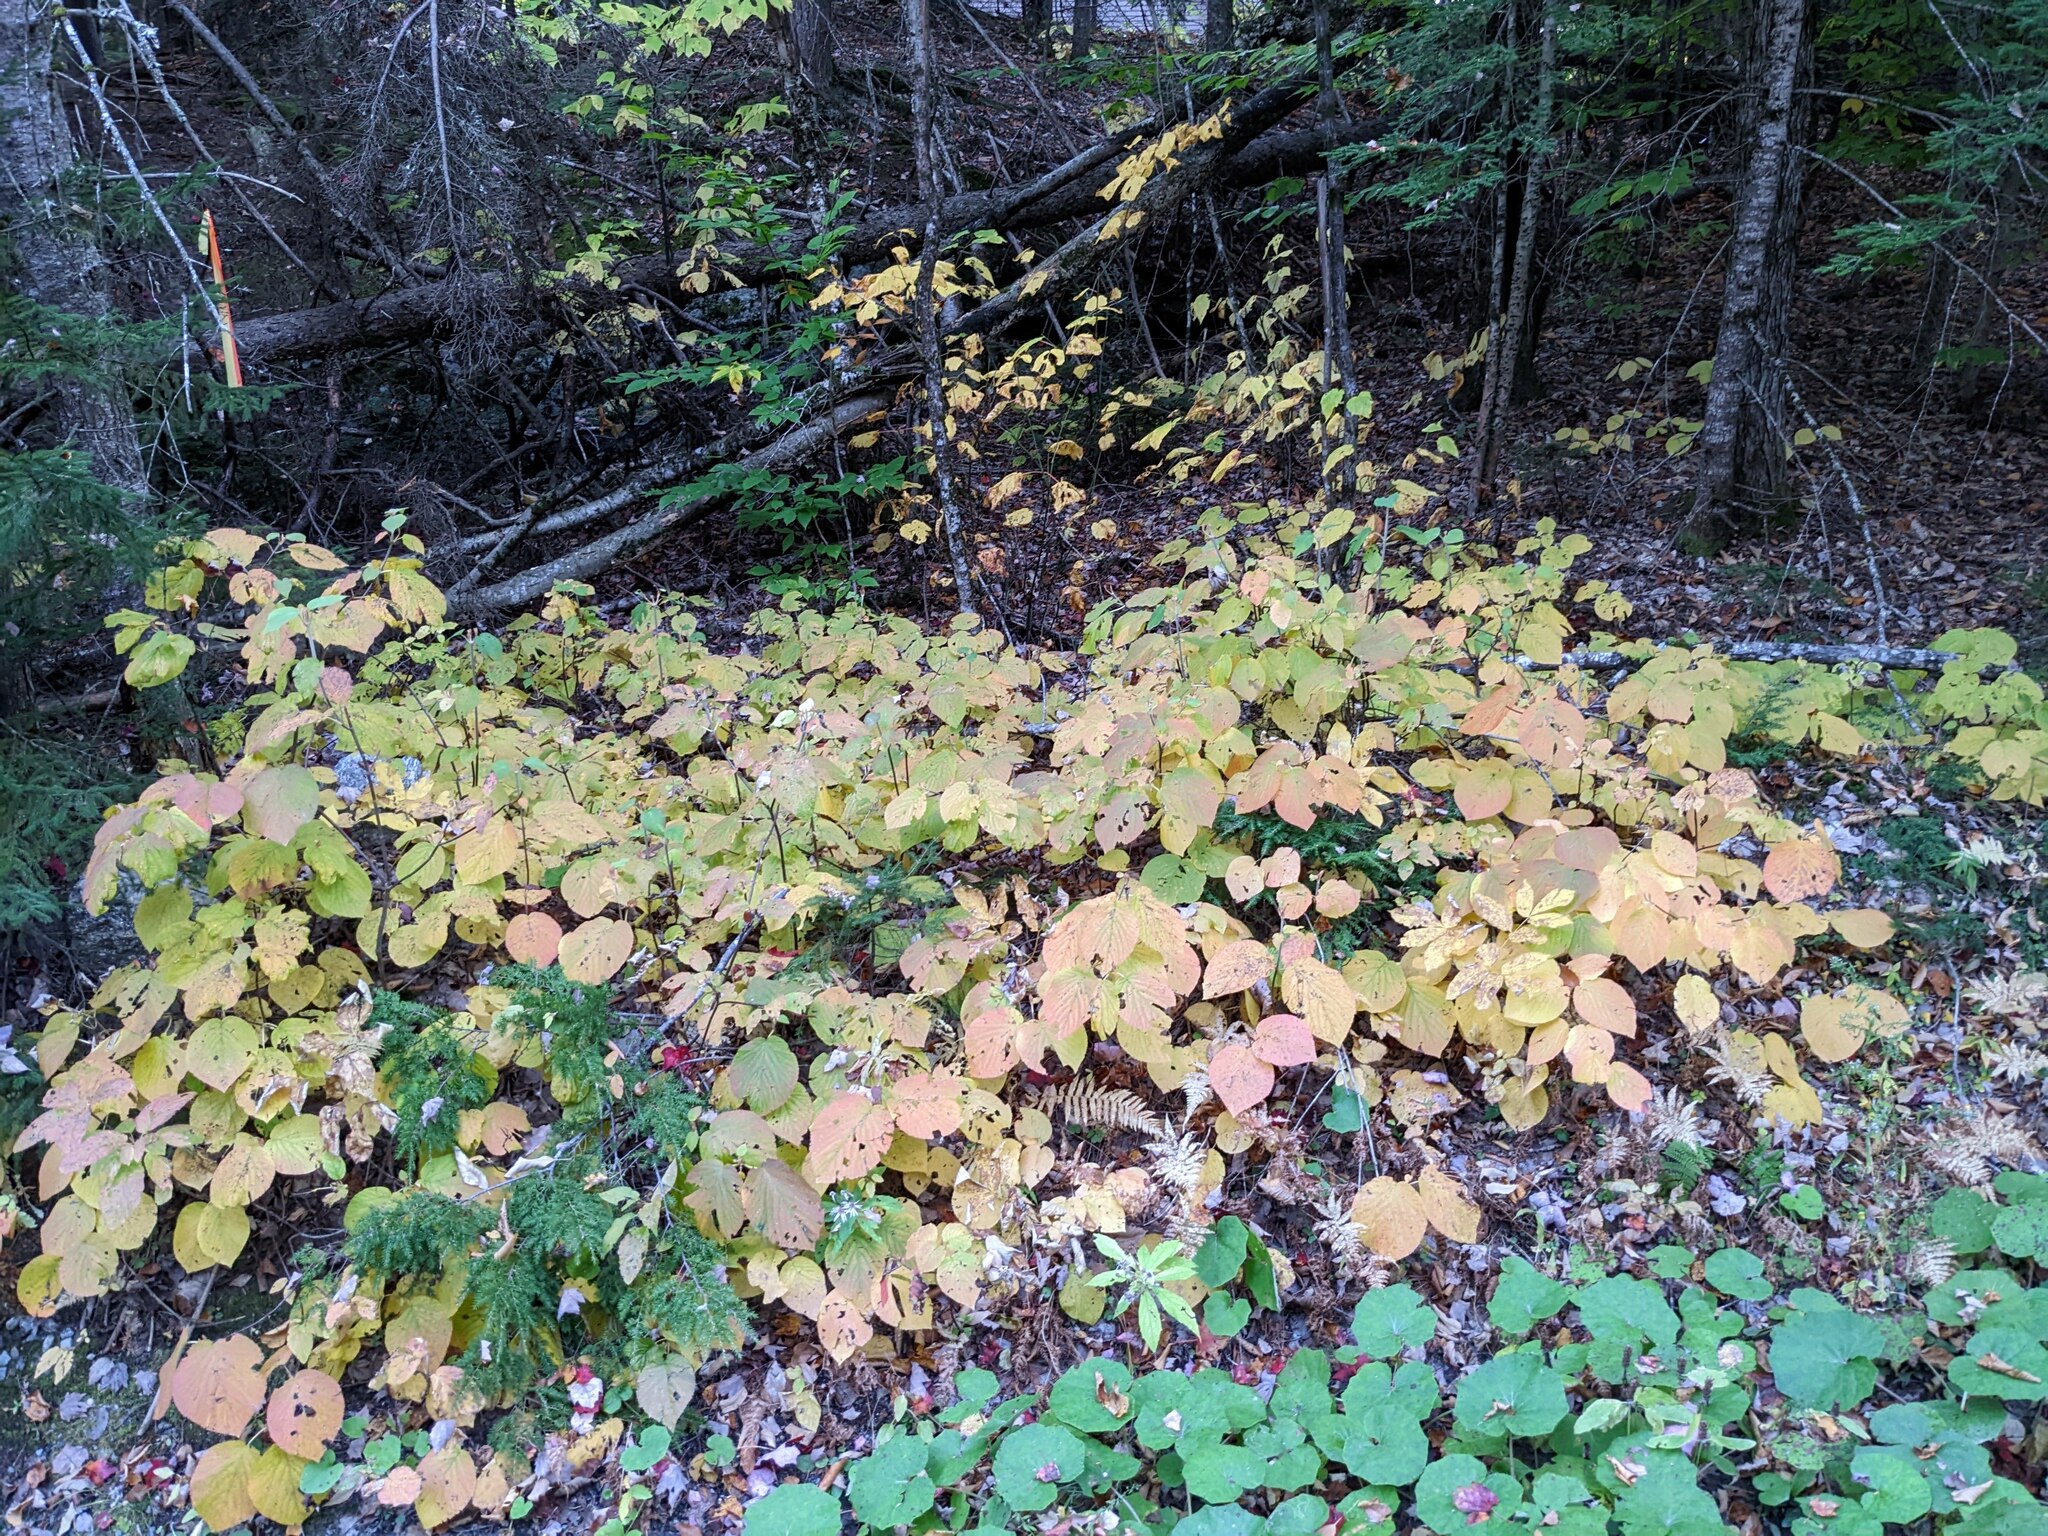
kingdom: Plantae
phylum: Tracheophyta
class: Magnoliopsida
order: Dipsacales
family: Viburnaceae
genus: Viburnum
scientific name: Viburnum lantanoides
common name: Hobblebush
